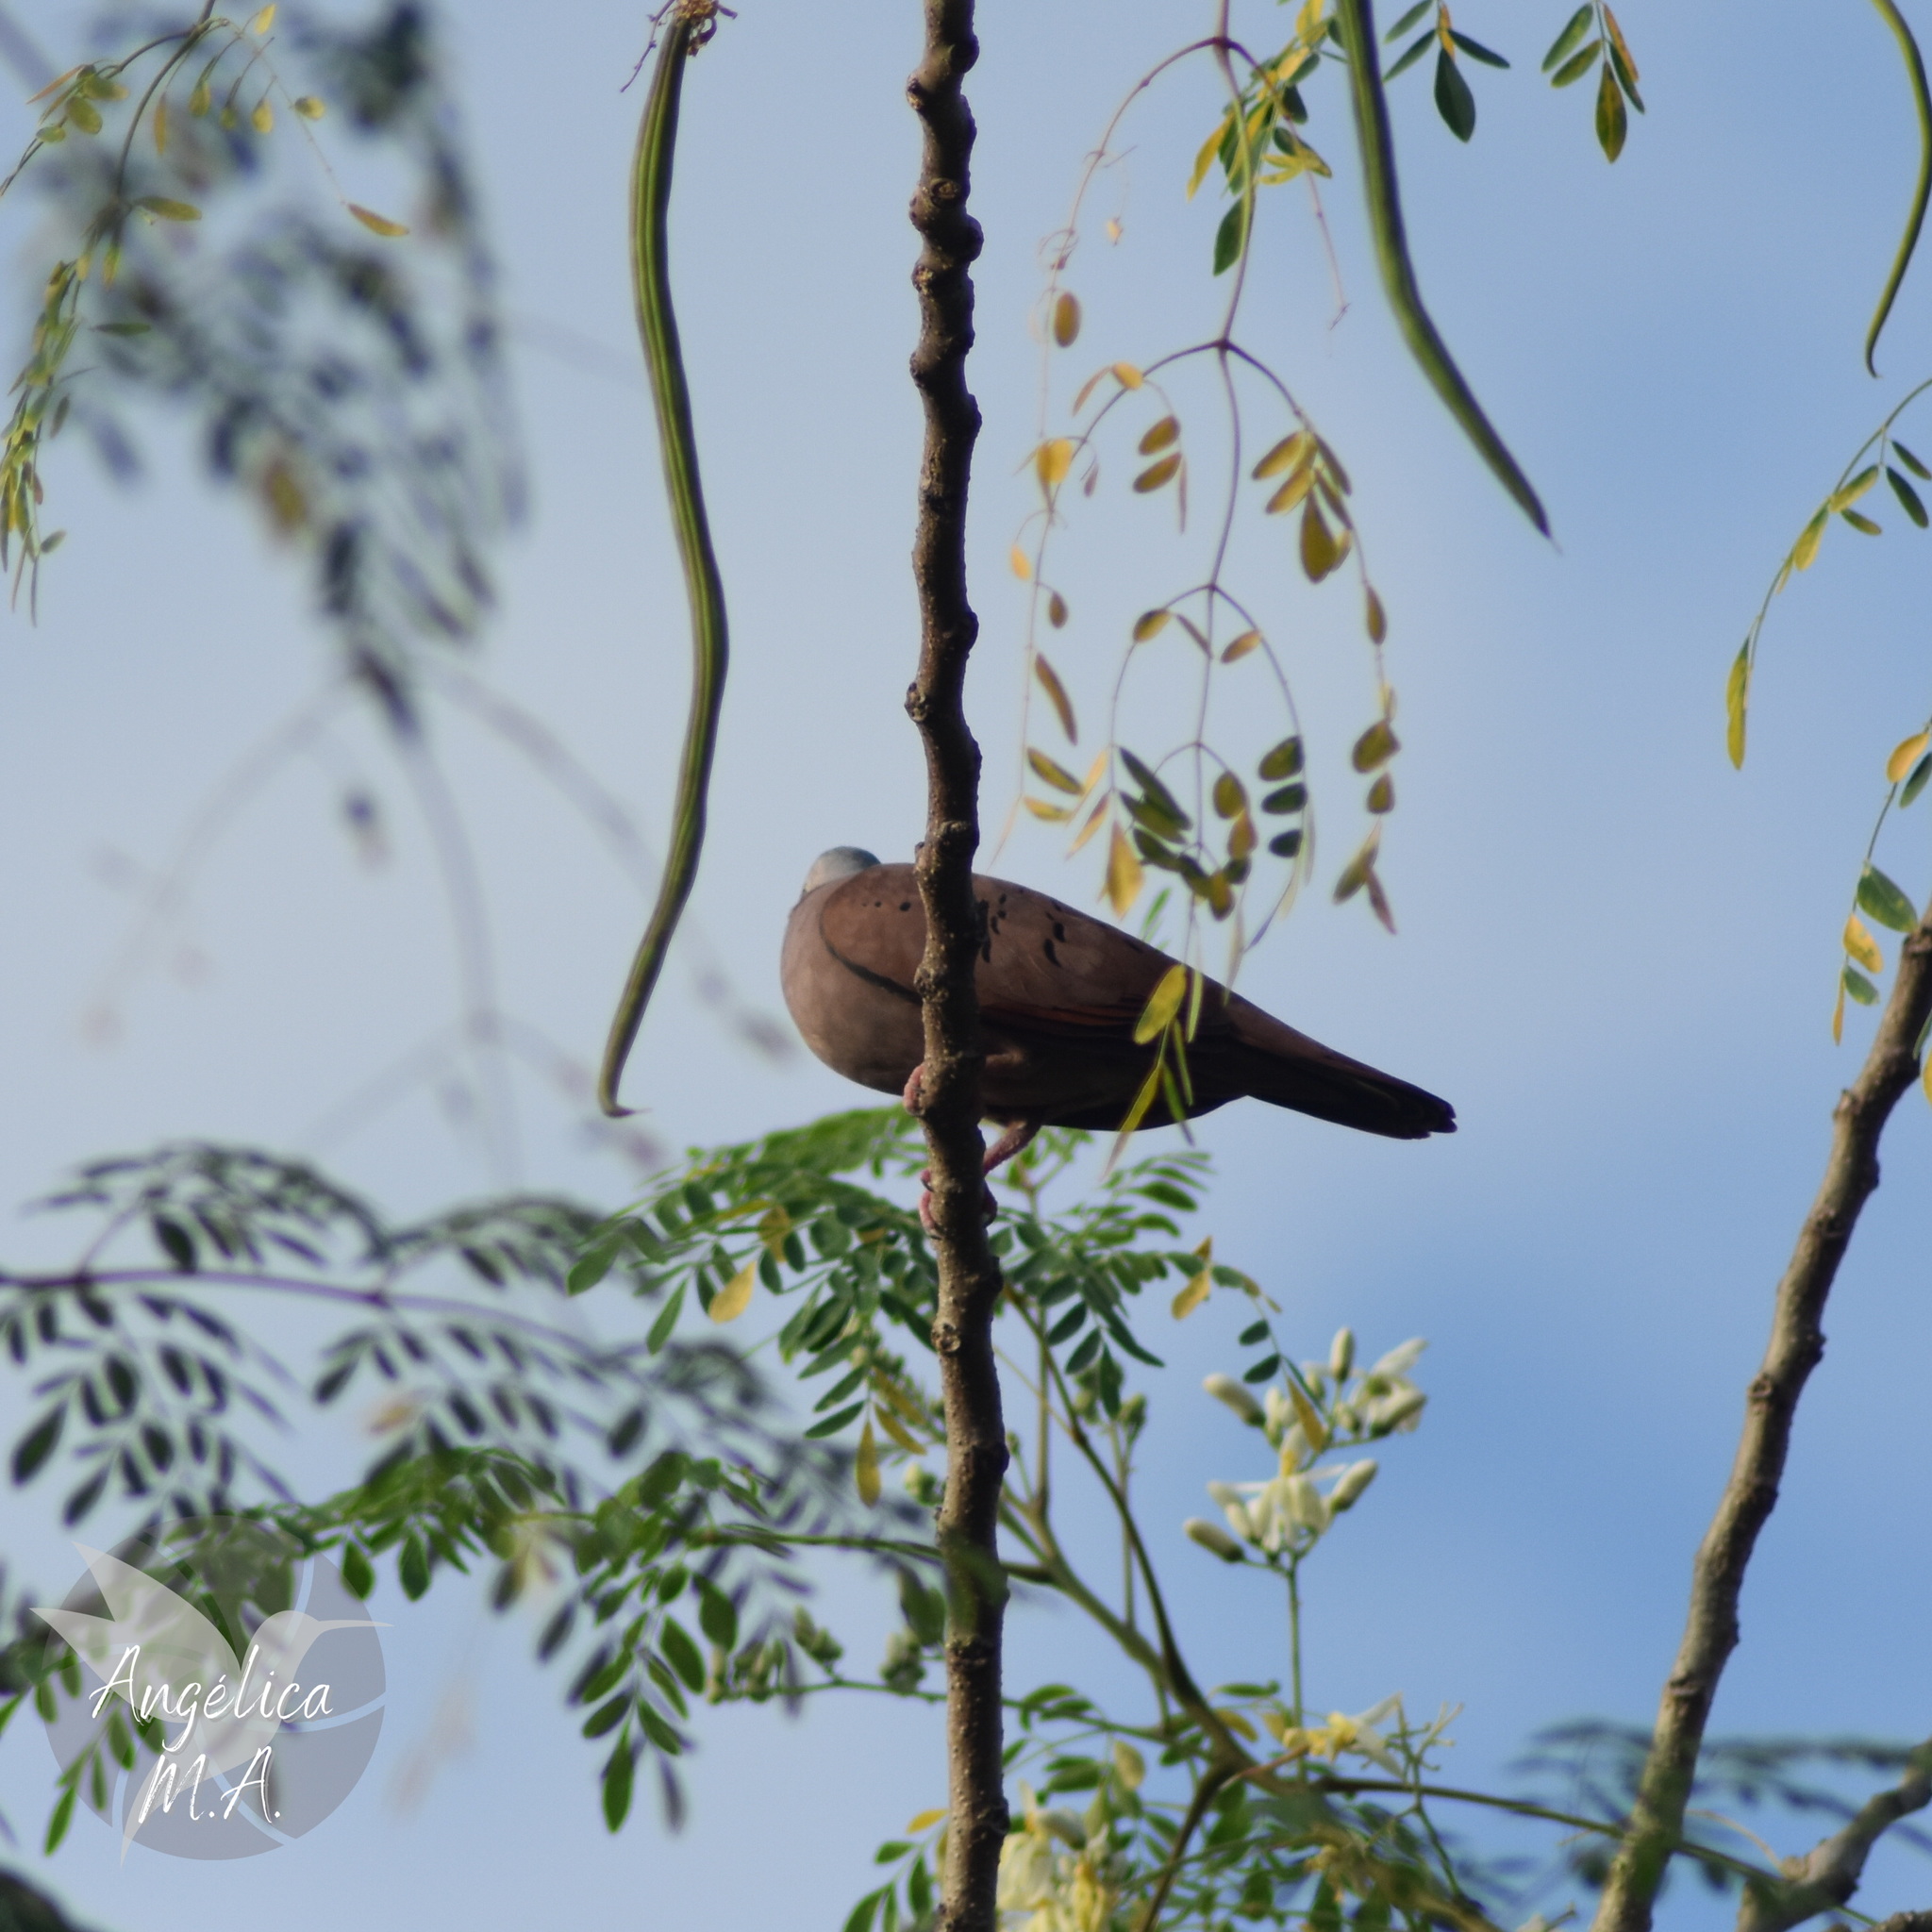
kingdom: Animalia
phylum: Chordata
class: Aves
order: Columbiformes
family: Columbidae
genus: Columbina
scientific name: Columbina talpacoti
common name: Ruddy ground dove
